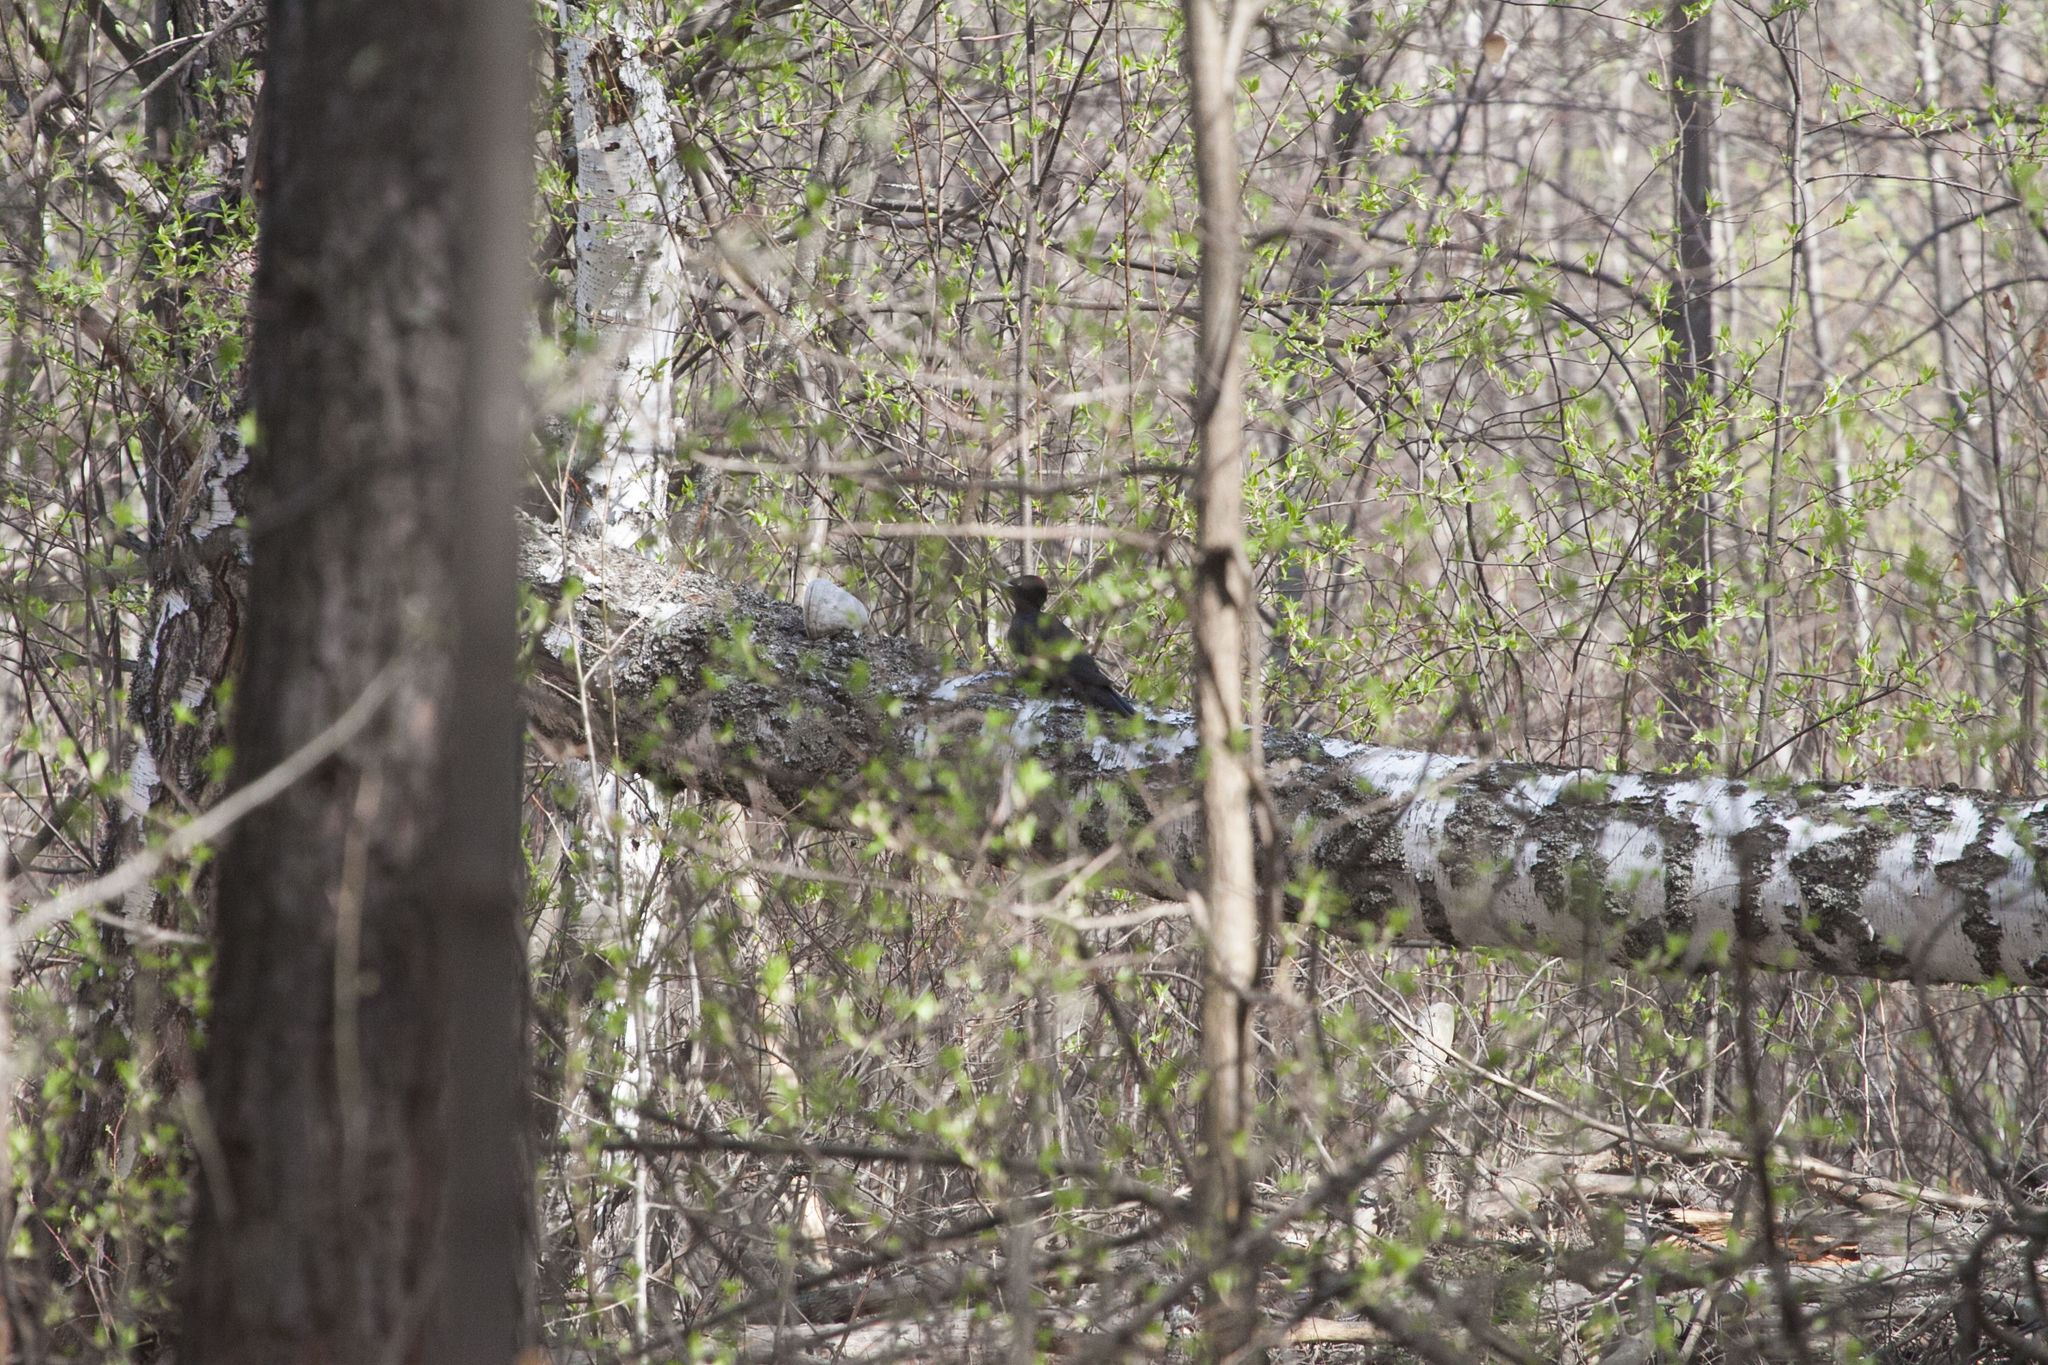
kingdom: Animalia
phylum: Chordata
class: Aves
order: Piciformes
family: Picidae
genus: Dryocopus
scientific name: Dryocopus martius
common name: Black woodpecker
